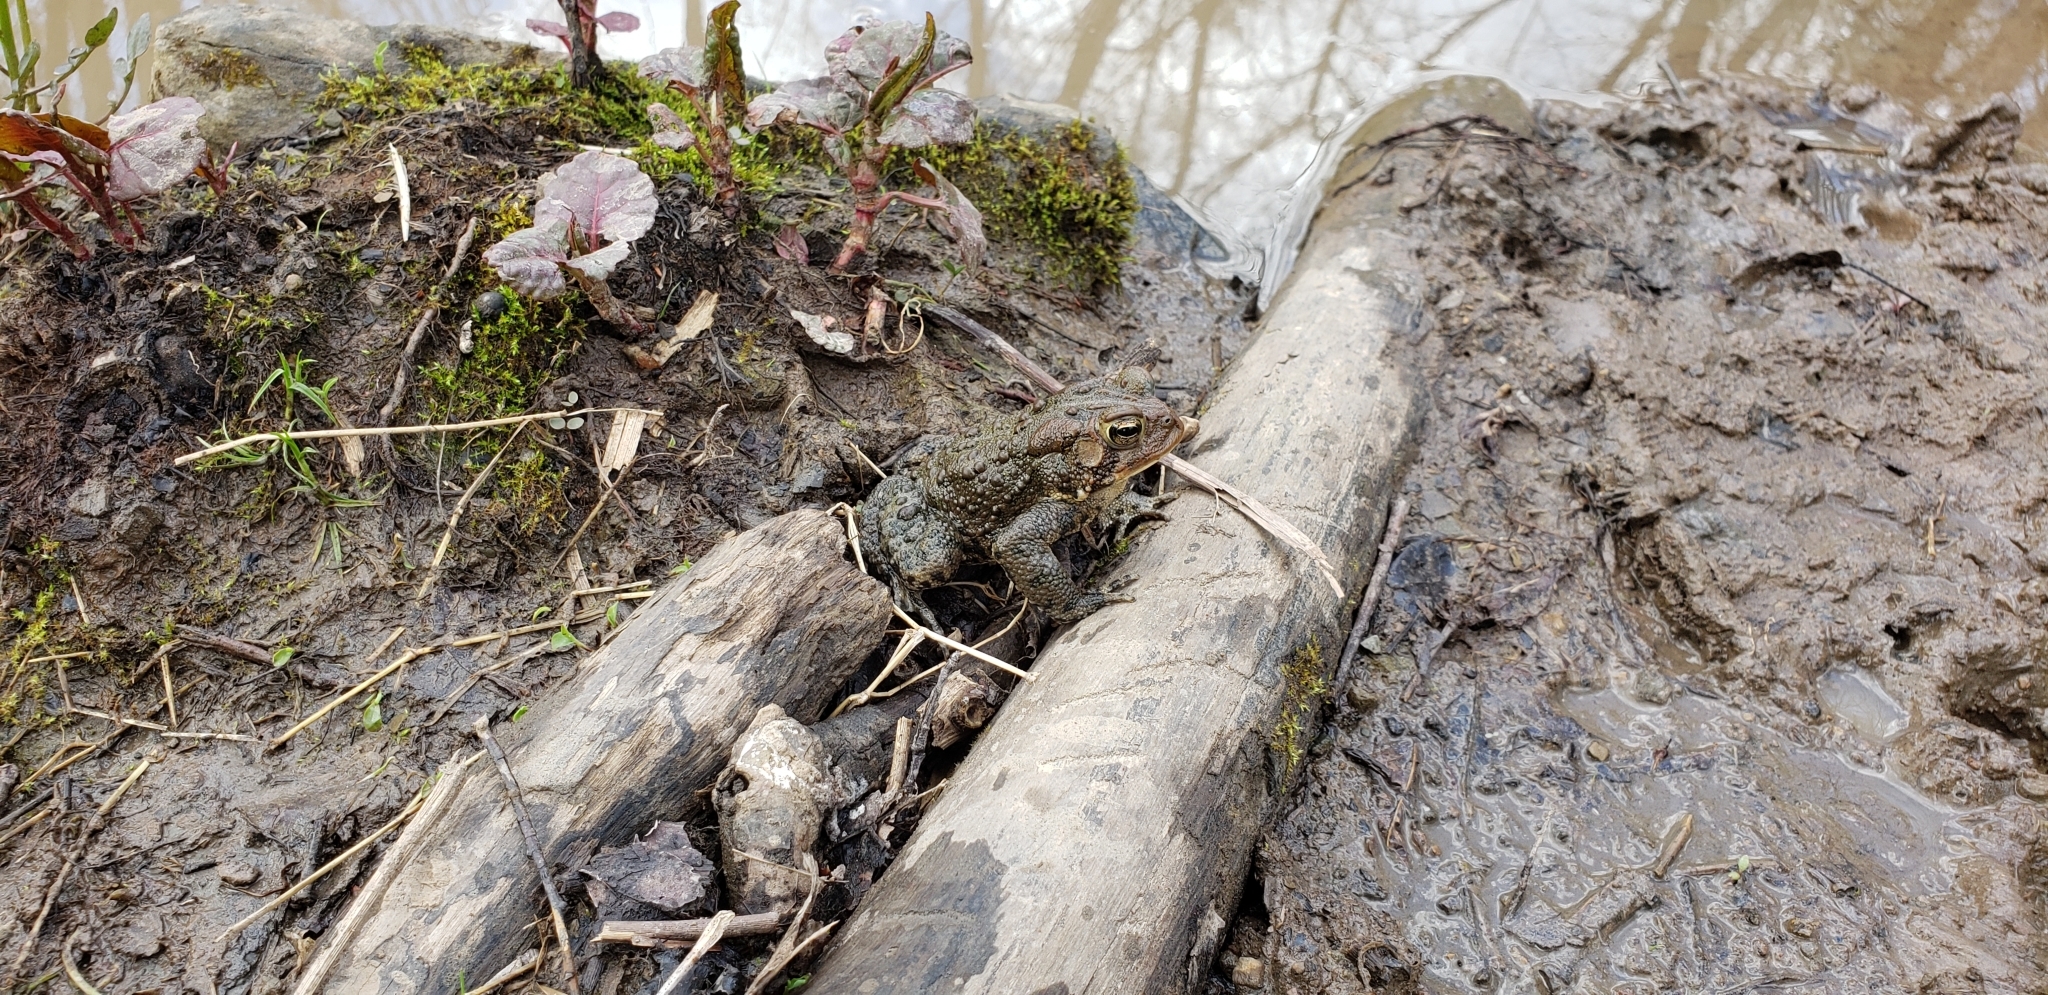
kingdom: Animalia
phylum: Chordata
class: Amphibia
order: Anura
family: Bufonidae
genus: Anaxyrus
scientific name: Anaxyrus americanus
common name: American toad
